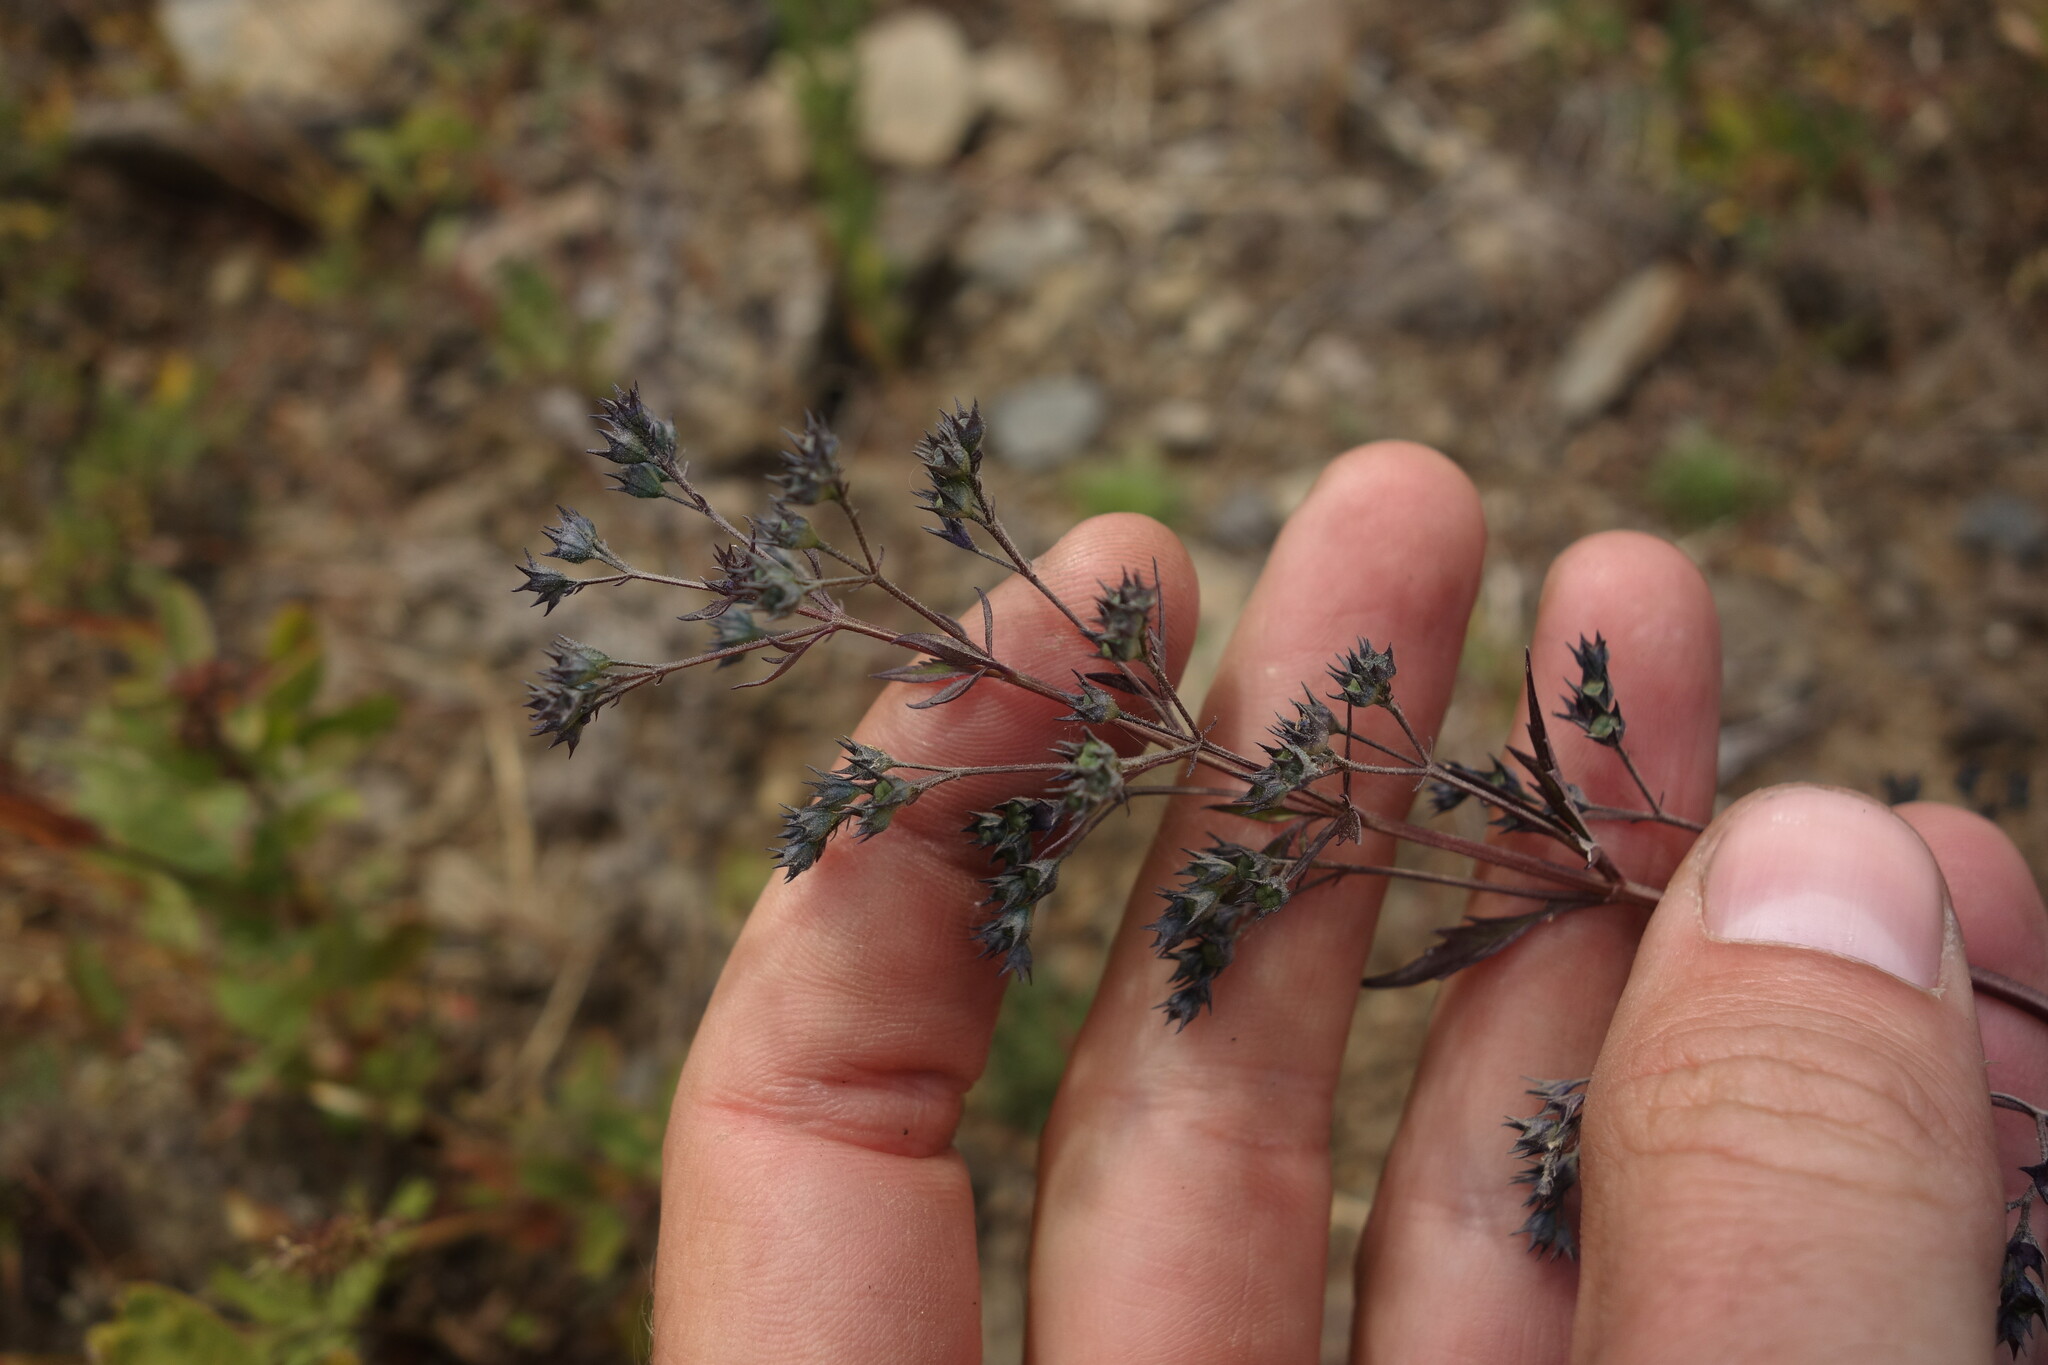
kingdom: Plantae
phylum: Tracheophyta
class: Magnoliopsida
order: Lamiales
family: Lamiaceae
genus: Amethystea
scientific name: Amethystea caerulea
